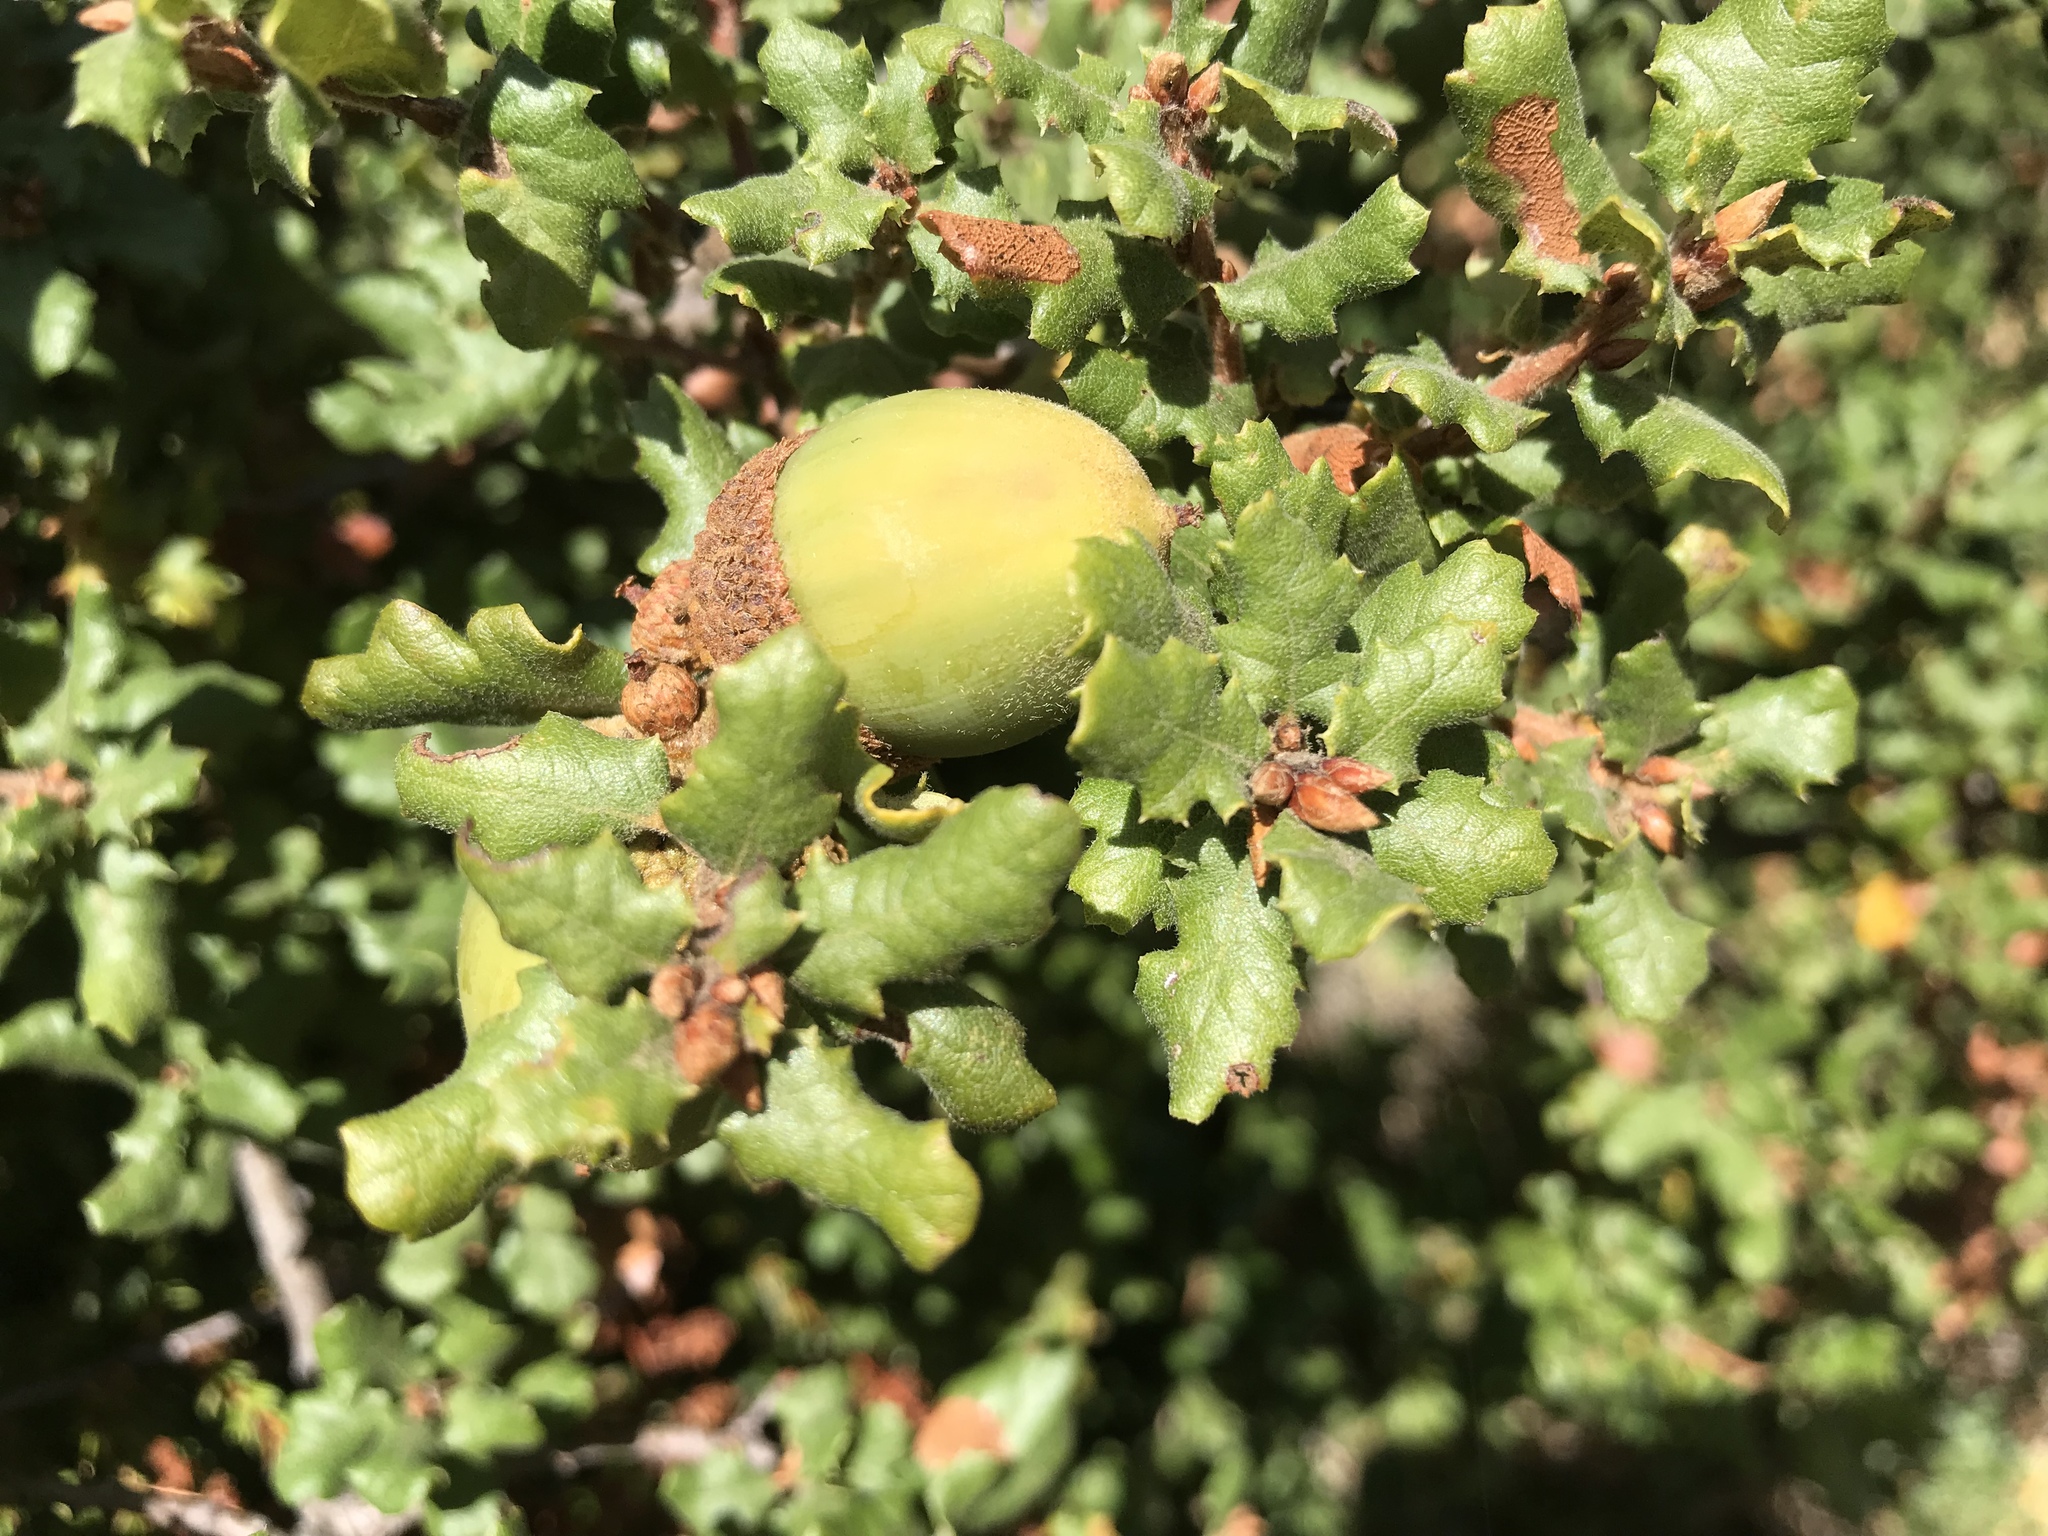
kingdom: Plantae
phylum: Tracheophyta
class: Magnoliopsida
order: Fagales
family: Fagaceae
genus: Quercus
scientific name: Quercus durata
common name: Leather oak
